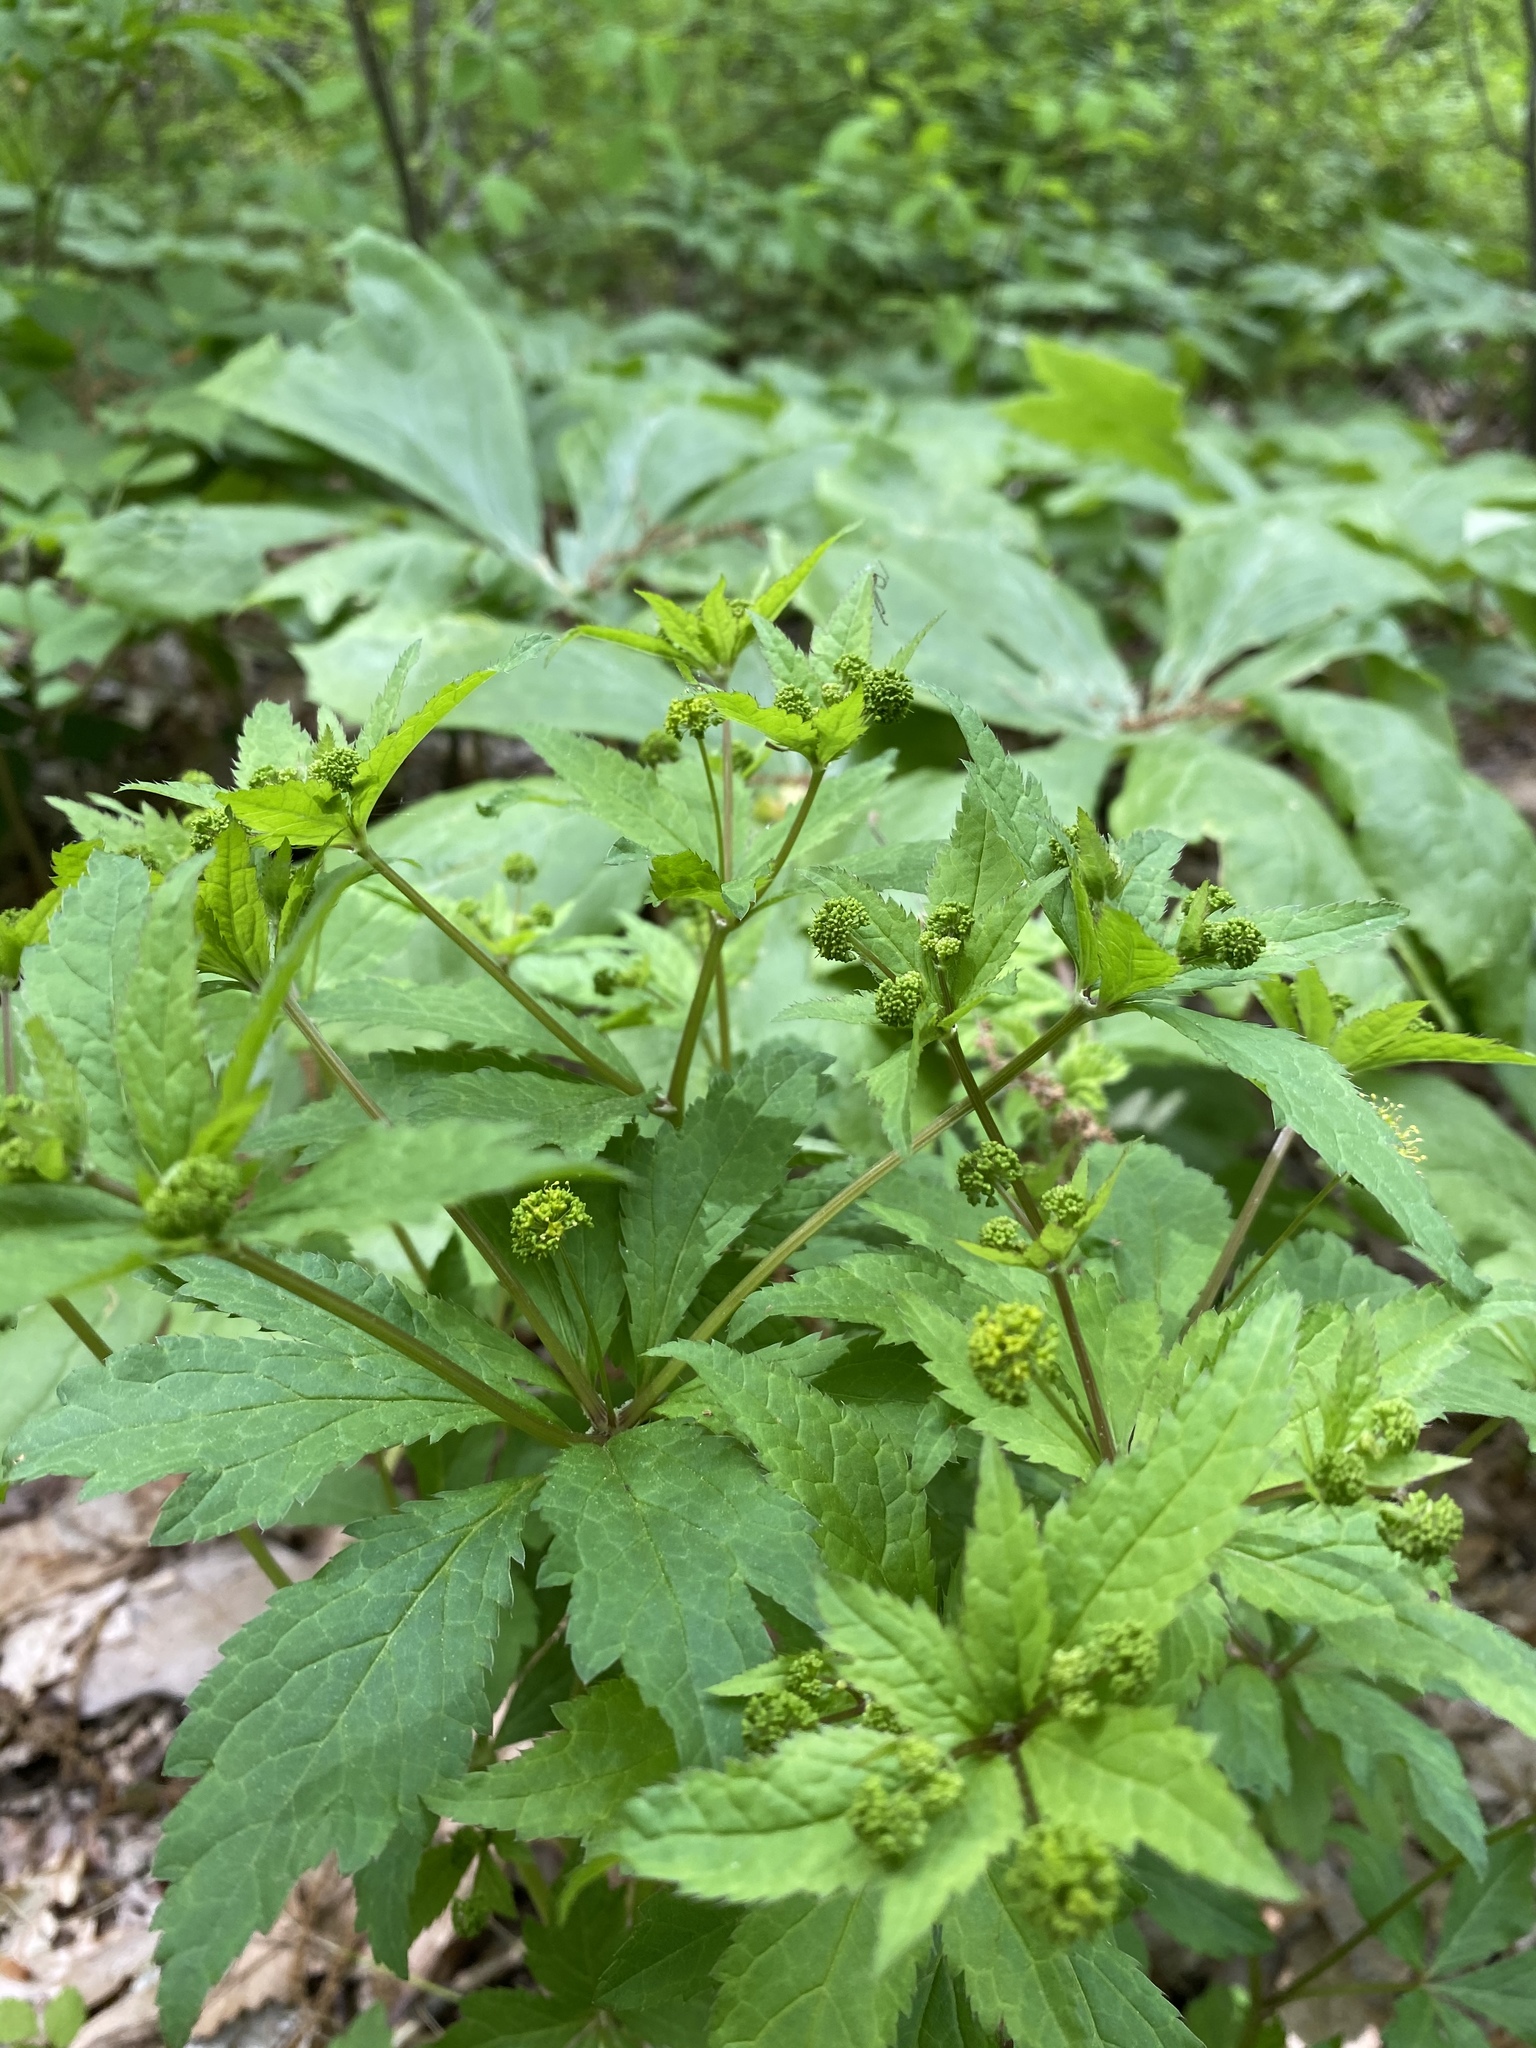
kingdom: Plantae
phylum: Tracheophyta
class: Magnoliopsida
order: Apiales
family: Apiaceae
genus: Sanicula
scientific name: Sanicula odorata
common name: Cluster sanicle
